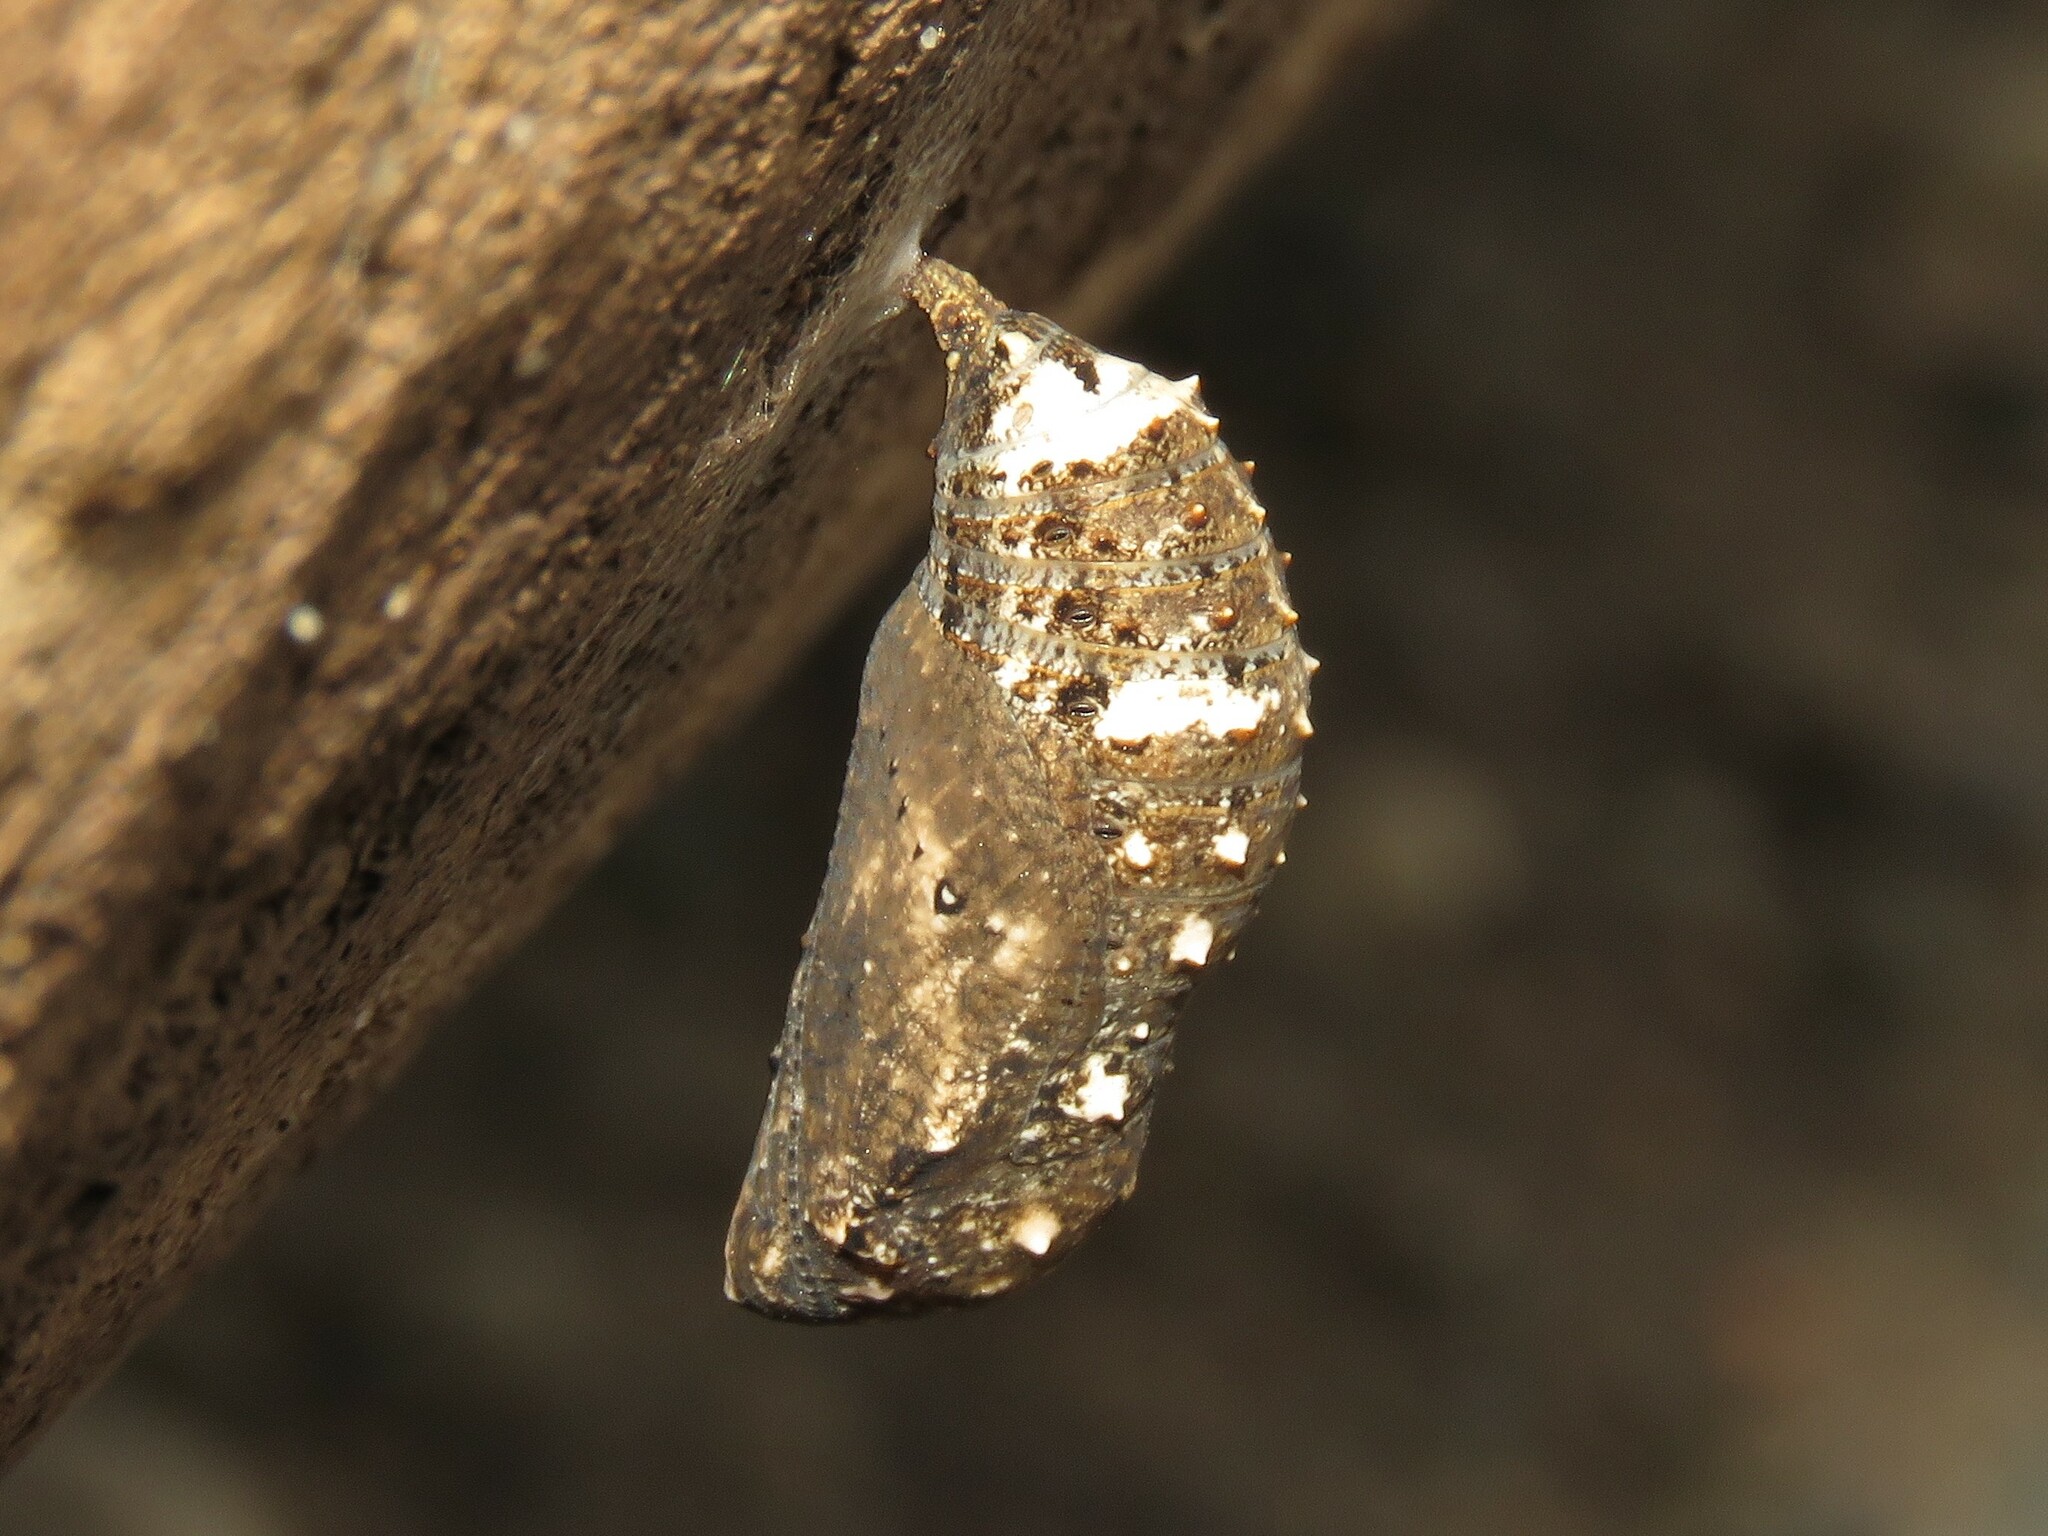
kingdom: Animalia
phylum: Arthropoda
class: Insecta
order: Lepidoptera
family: Nymphalidae
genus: Junonia
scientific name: Junonia coenia
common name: Common buckeye
